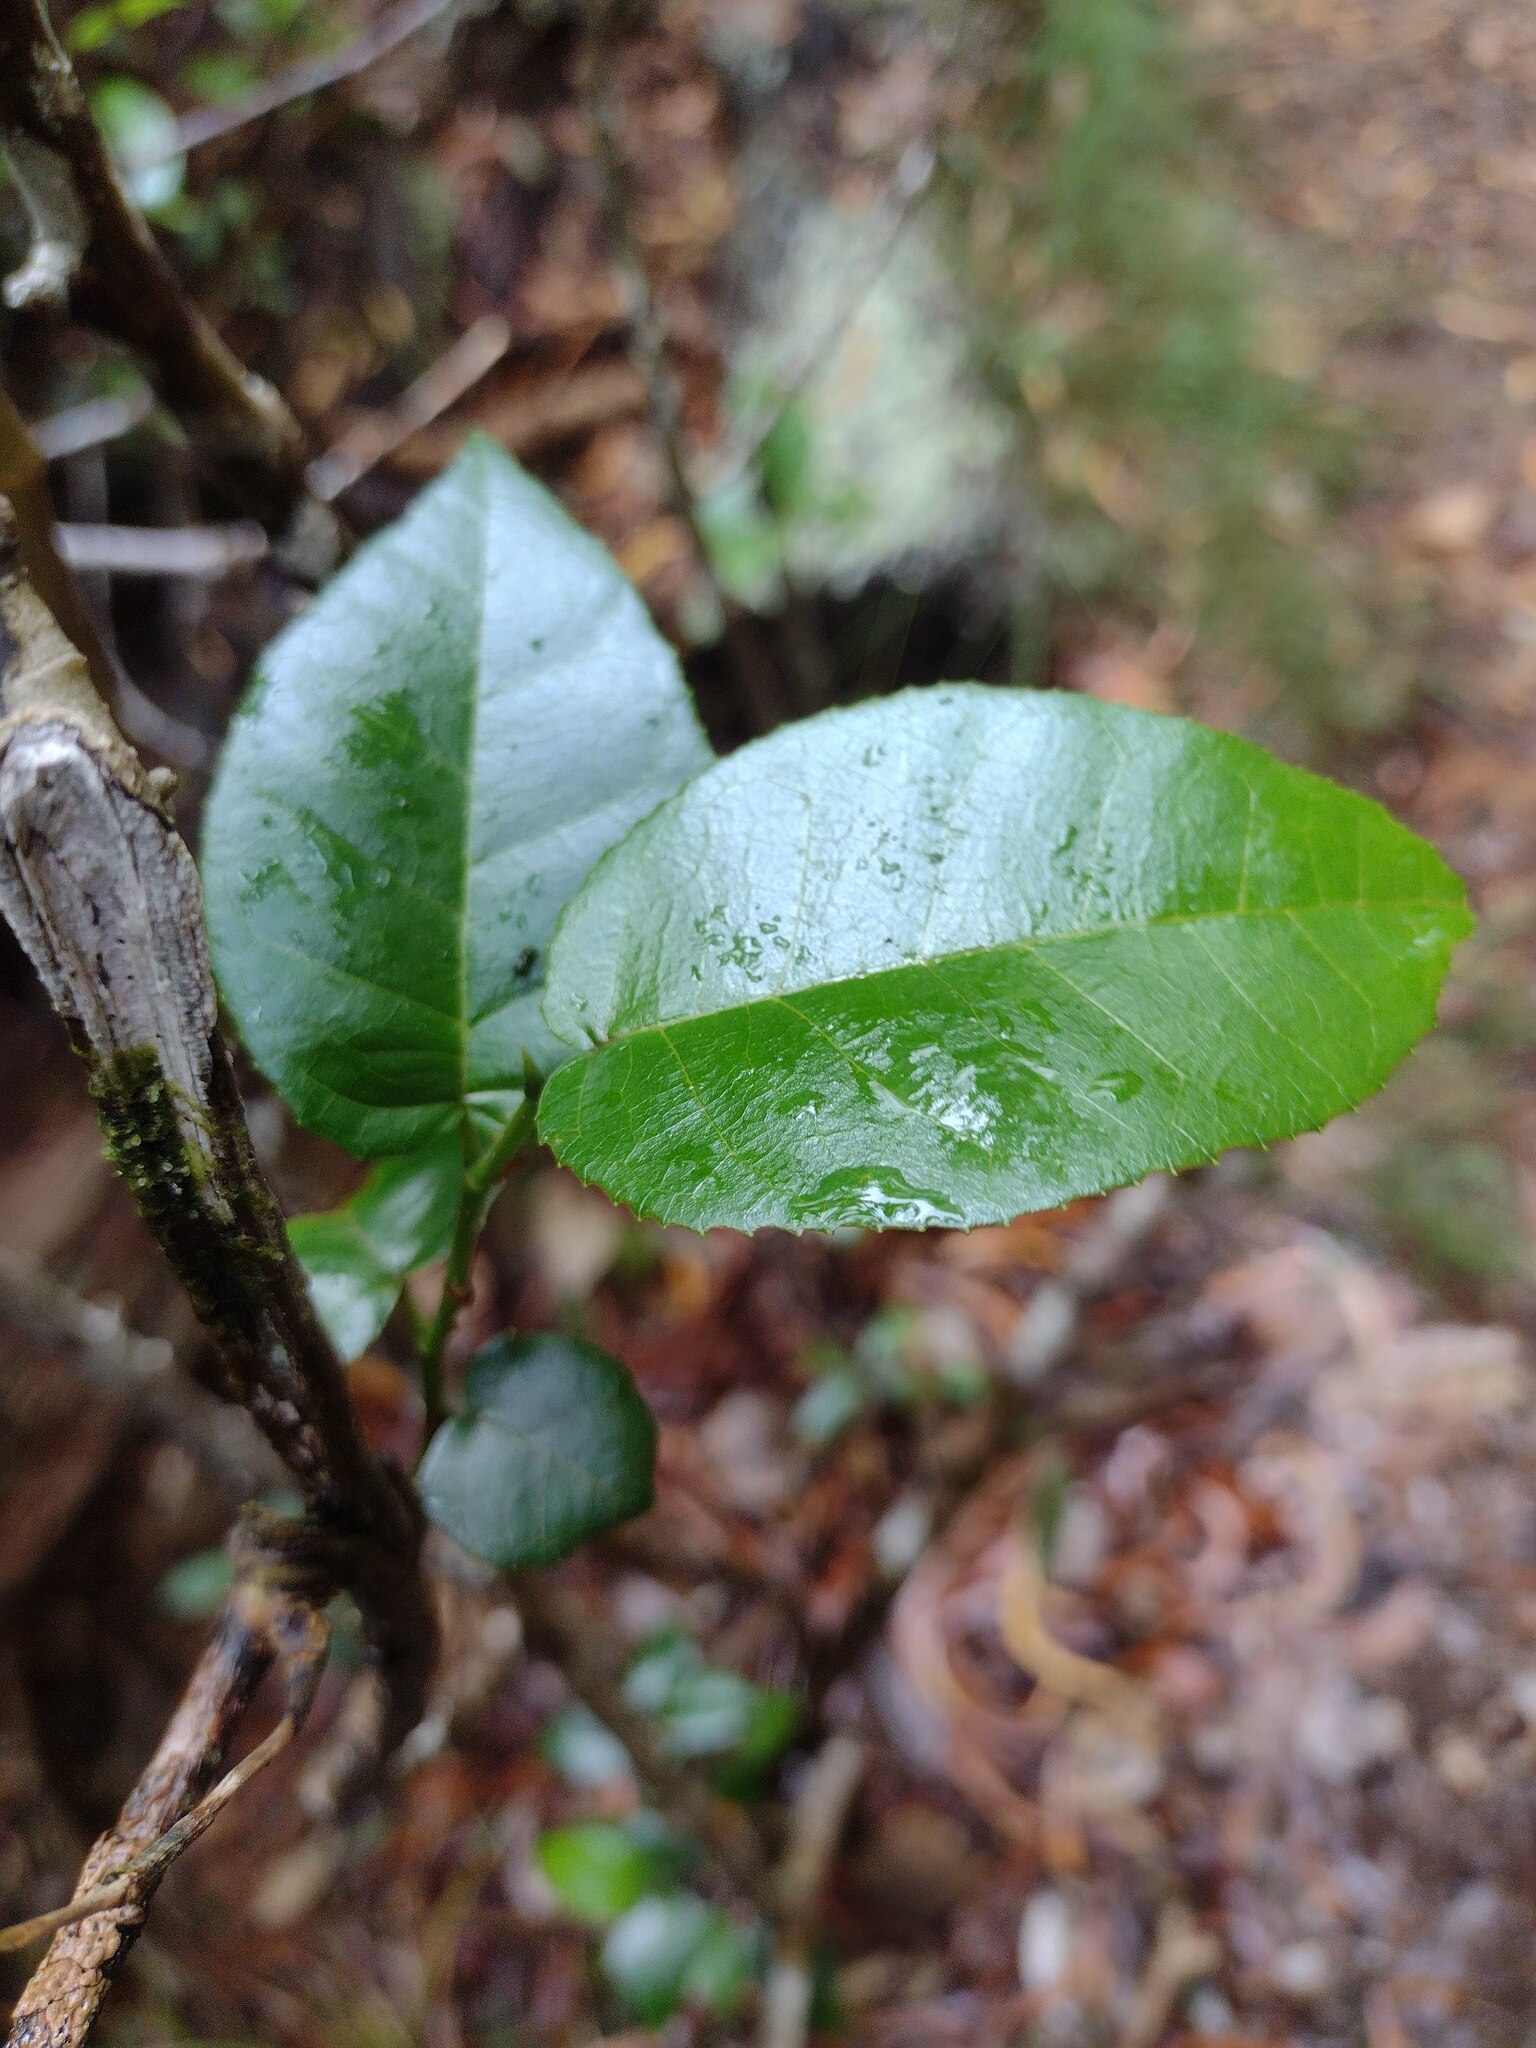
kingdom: Plantae
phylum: Tracheophyta
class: Magnoliopsida
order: Rosales
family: Moraceae
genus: Paratrophis
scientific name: Paratrophis pendulina
